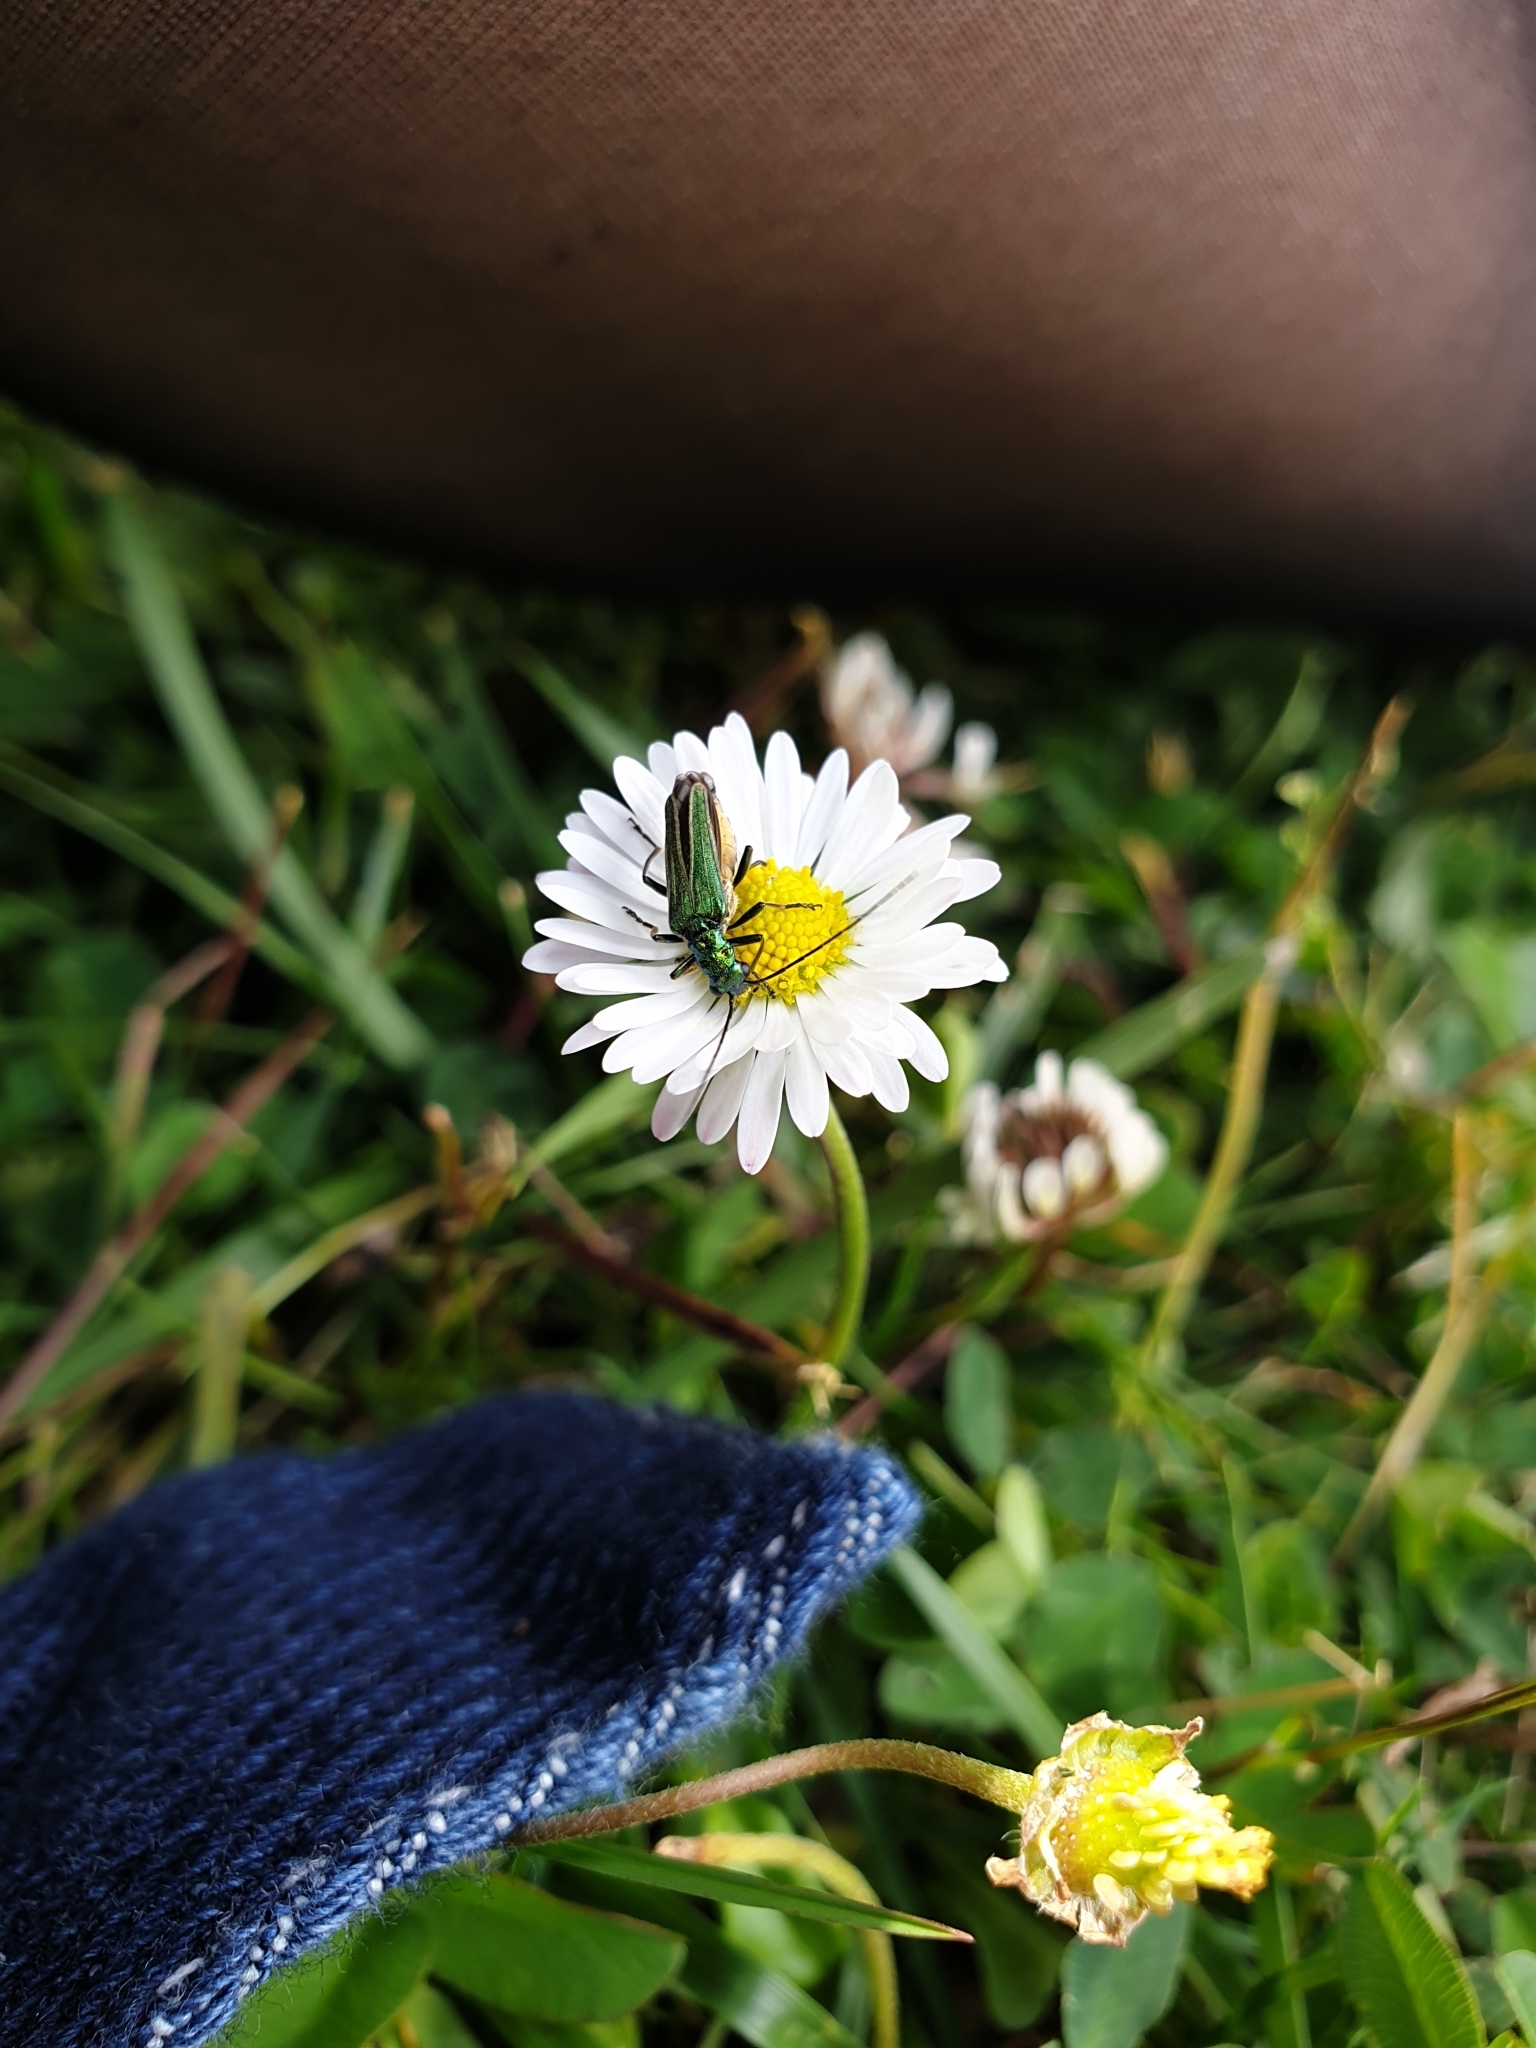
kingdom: Animalia
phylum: Arthropoda
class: Insecta
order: Coleoptera
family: Oedemeridae
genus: Oedemera
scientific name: Oedemera nobilis
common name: Swollen-thighed beetle
